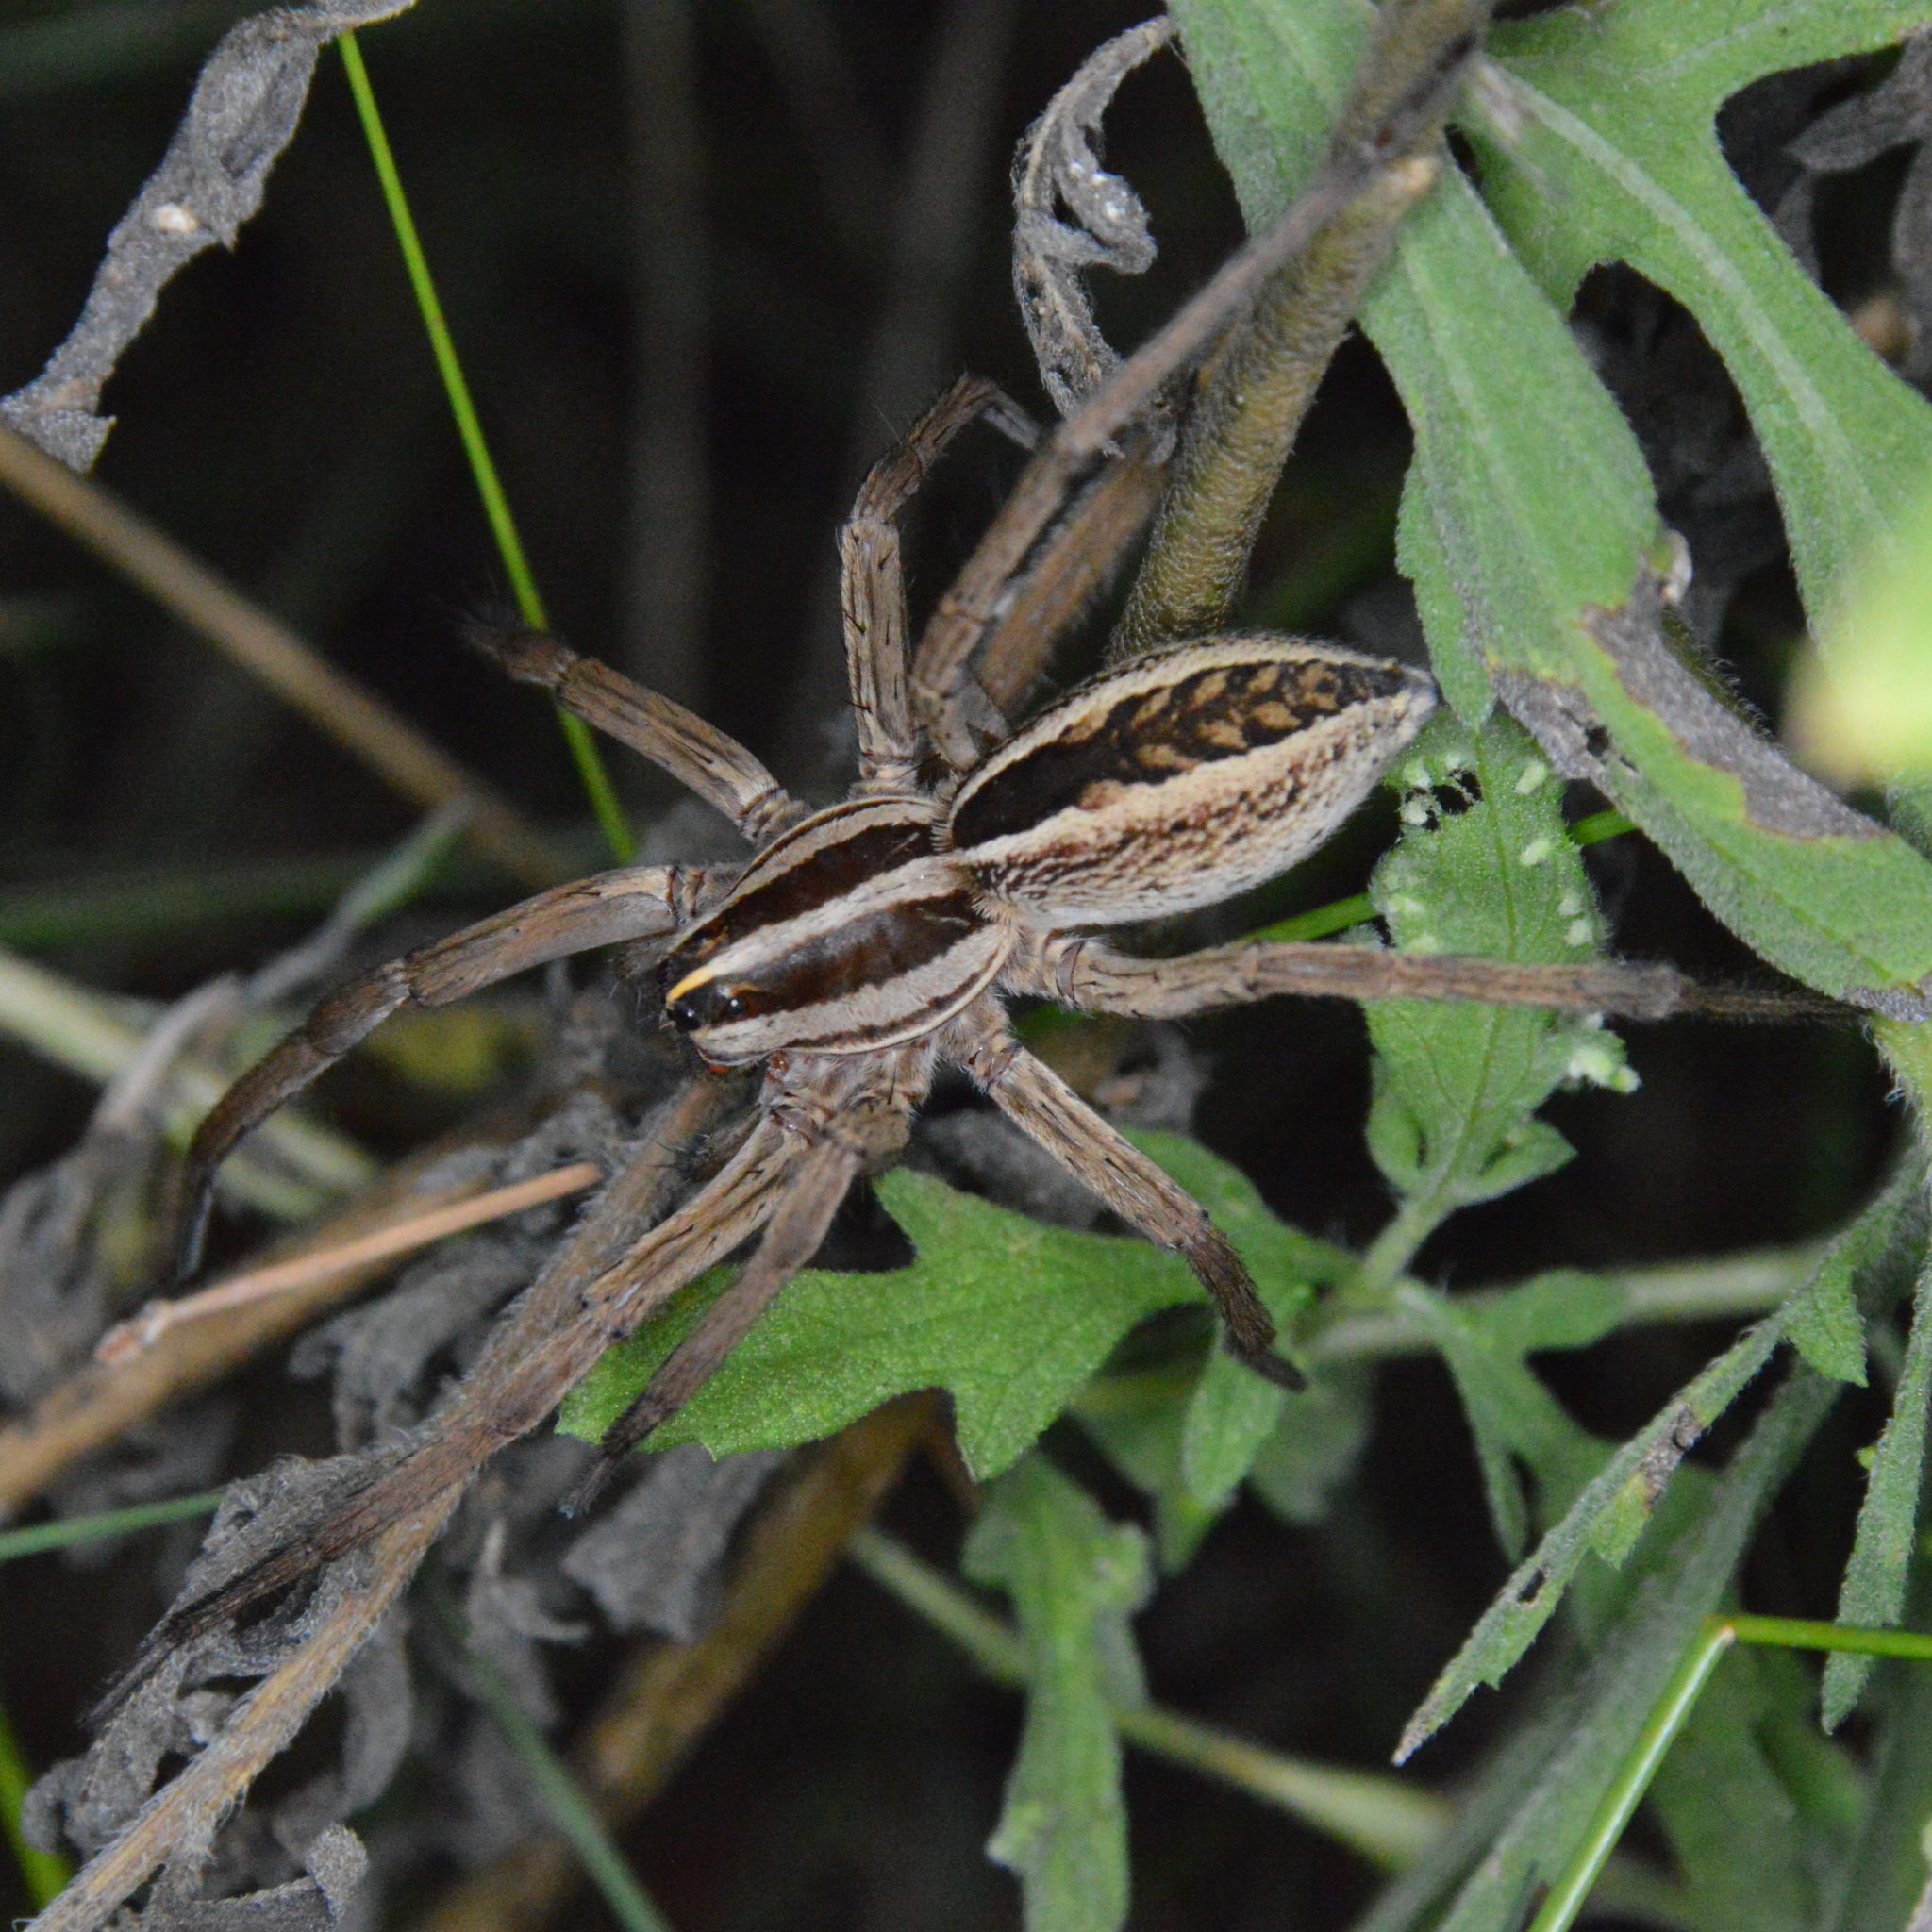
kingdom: Animalia
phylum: Arthropoda
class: Arachnida
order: Araneae
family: Lycosidae
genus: Rabidosa
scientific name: Rabidosa rabida
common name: Rabid wolf spider
